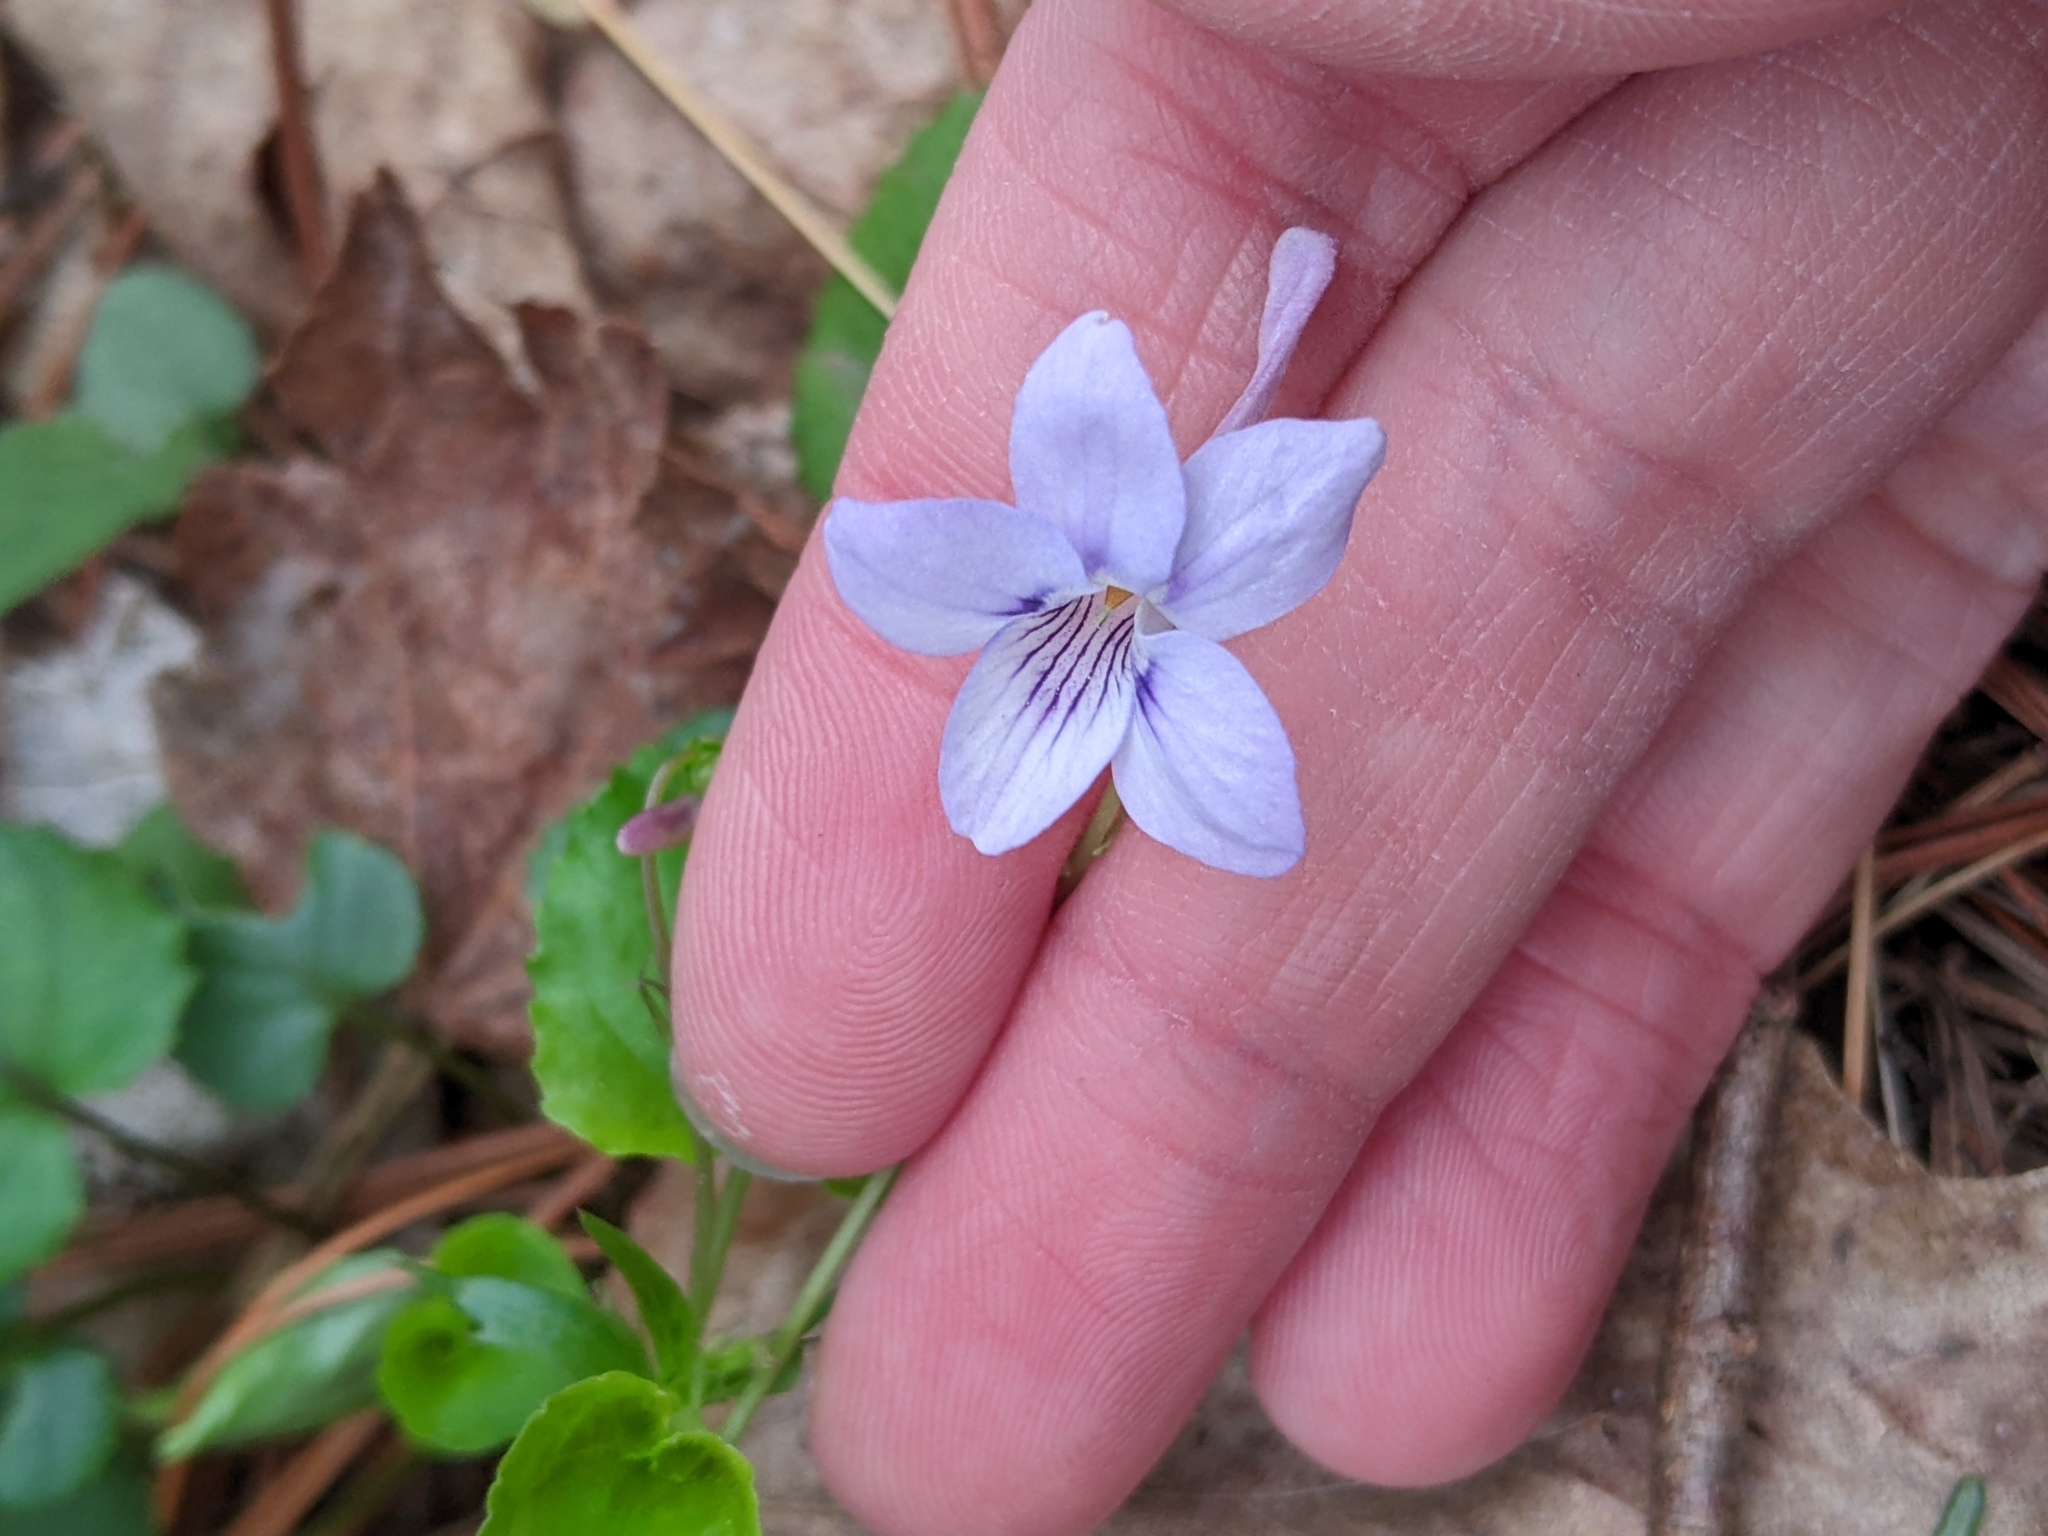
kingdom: Plantae
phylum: Tracheophyta
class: Magnoliopsida
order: Malpighiales
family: Violaceae
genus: Viola
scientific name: Viola rostrata
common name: Long-spur violet
